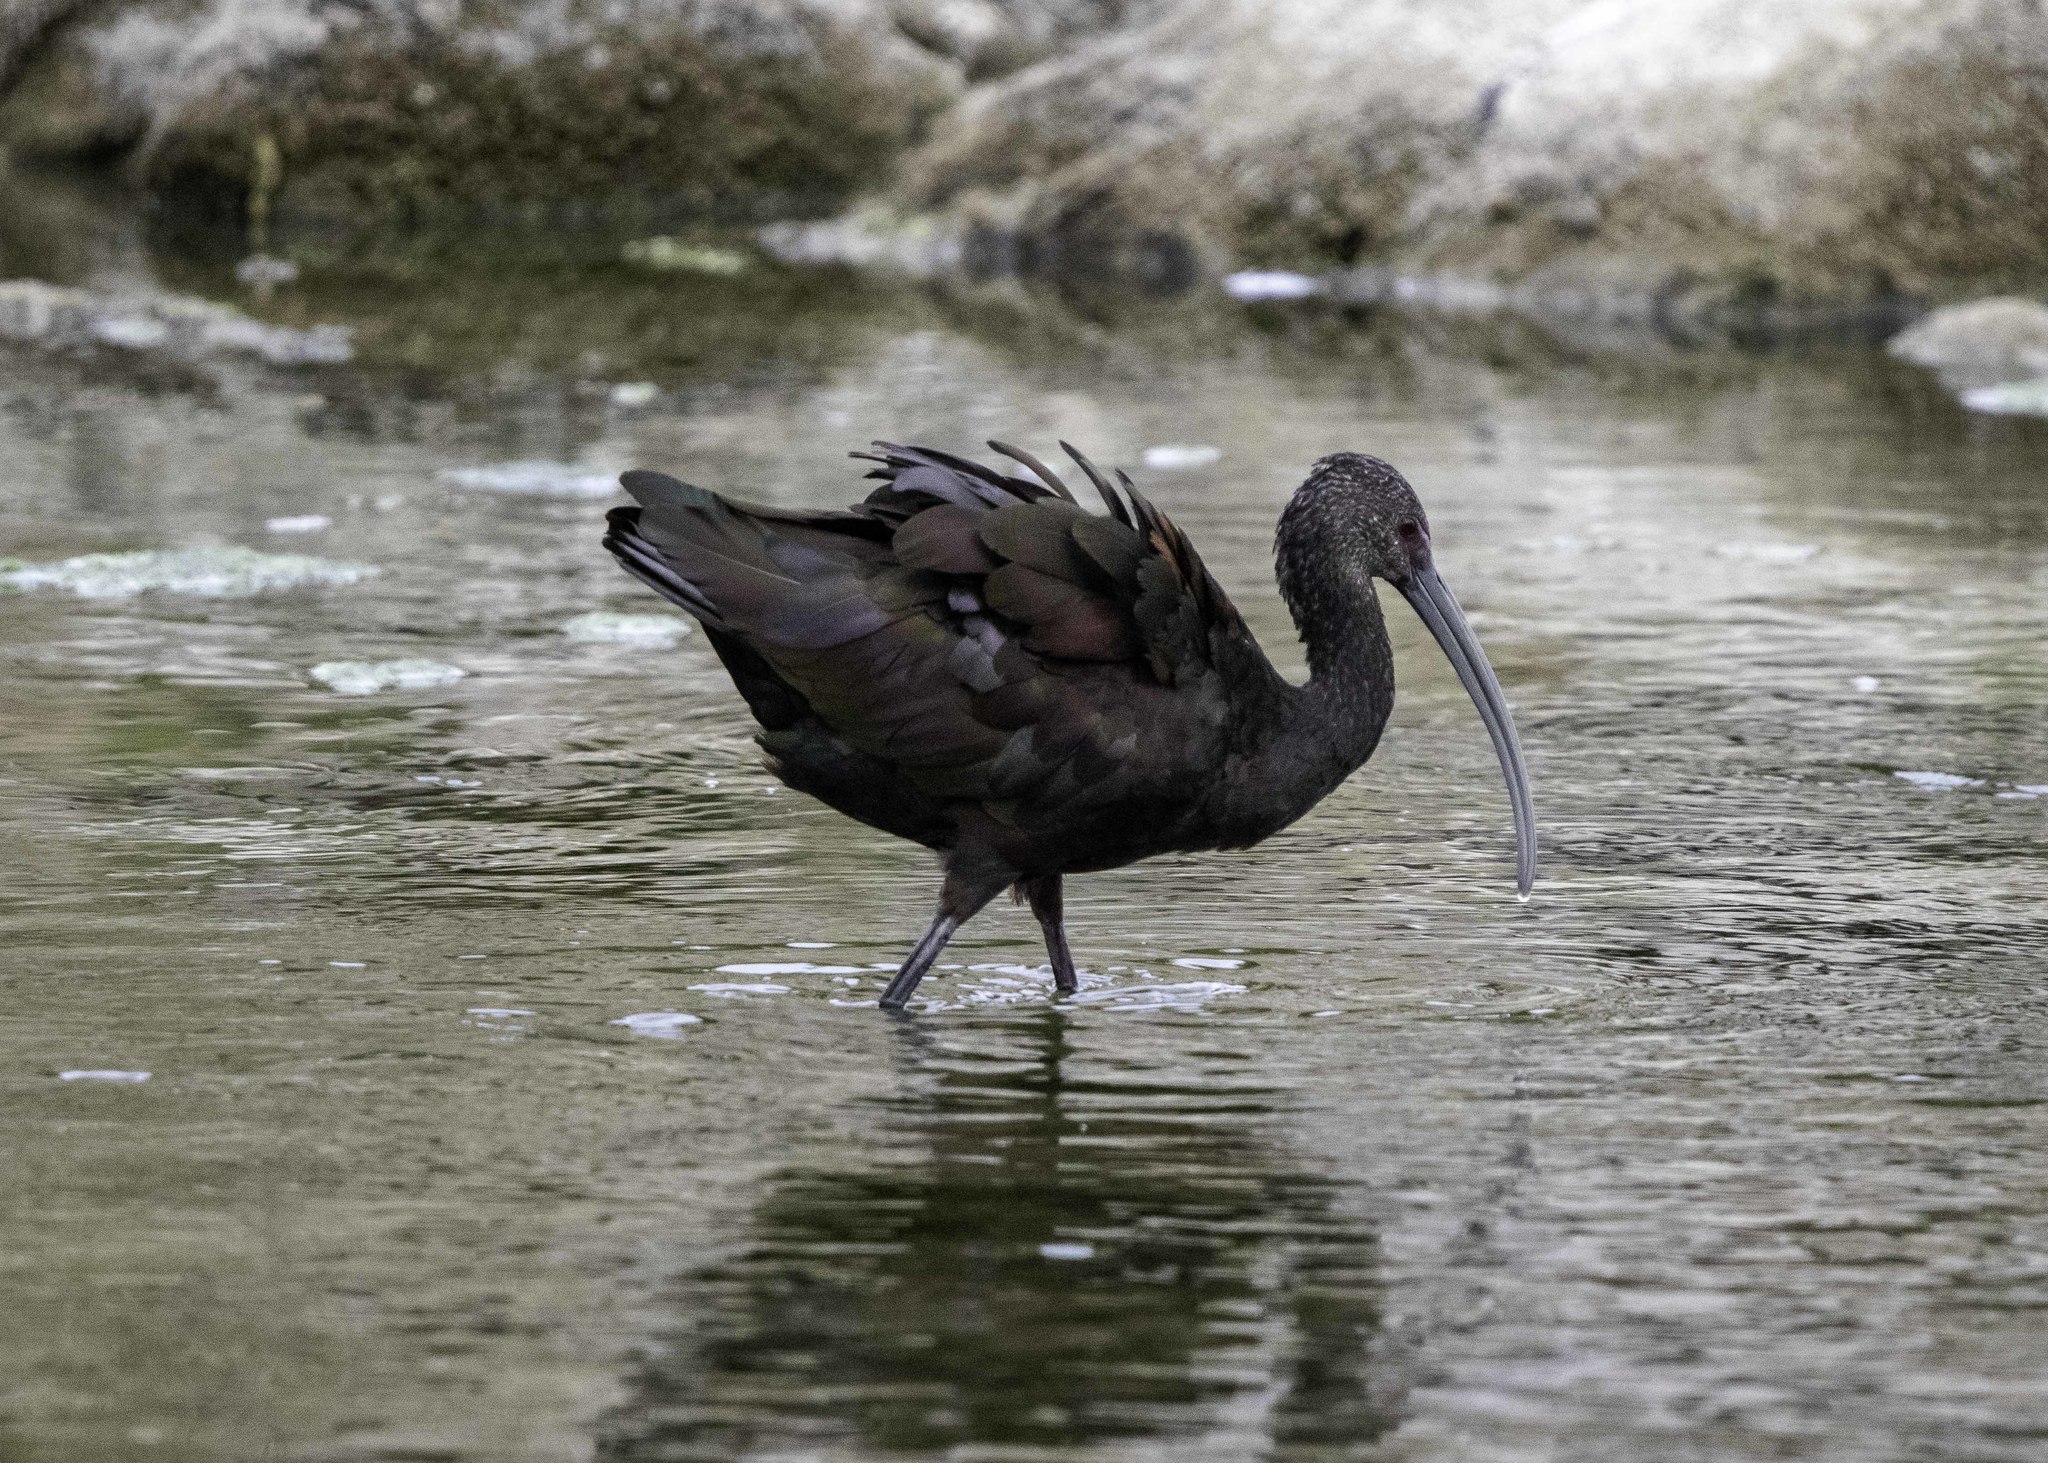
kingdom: Animalia
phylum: Chordata
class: Aves
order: Pelecaniformes
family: Threskiornithidae
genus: Plegadis
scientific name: Plegadis chihi
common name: White-faced ibis
